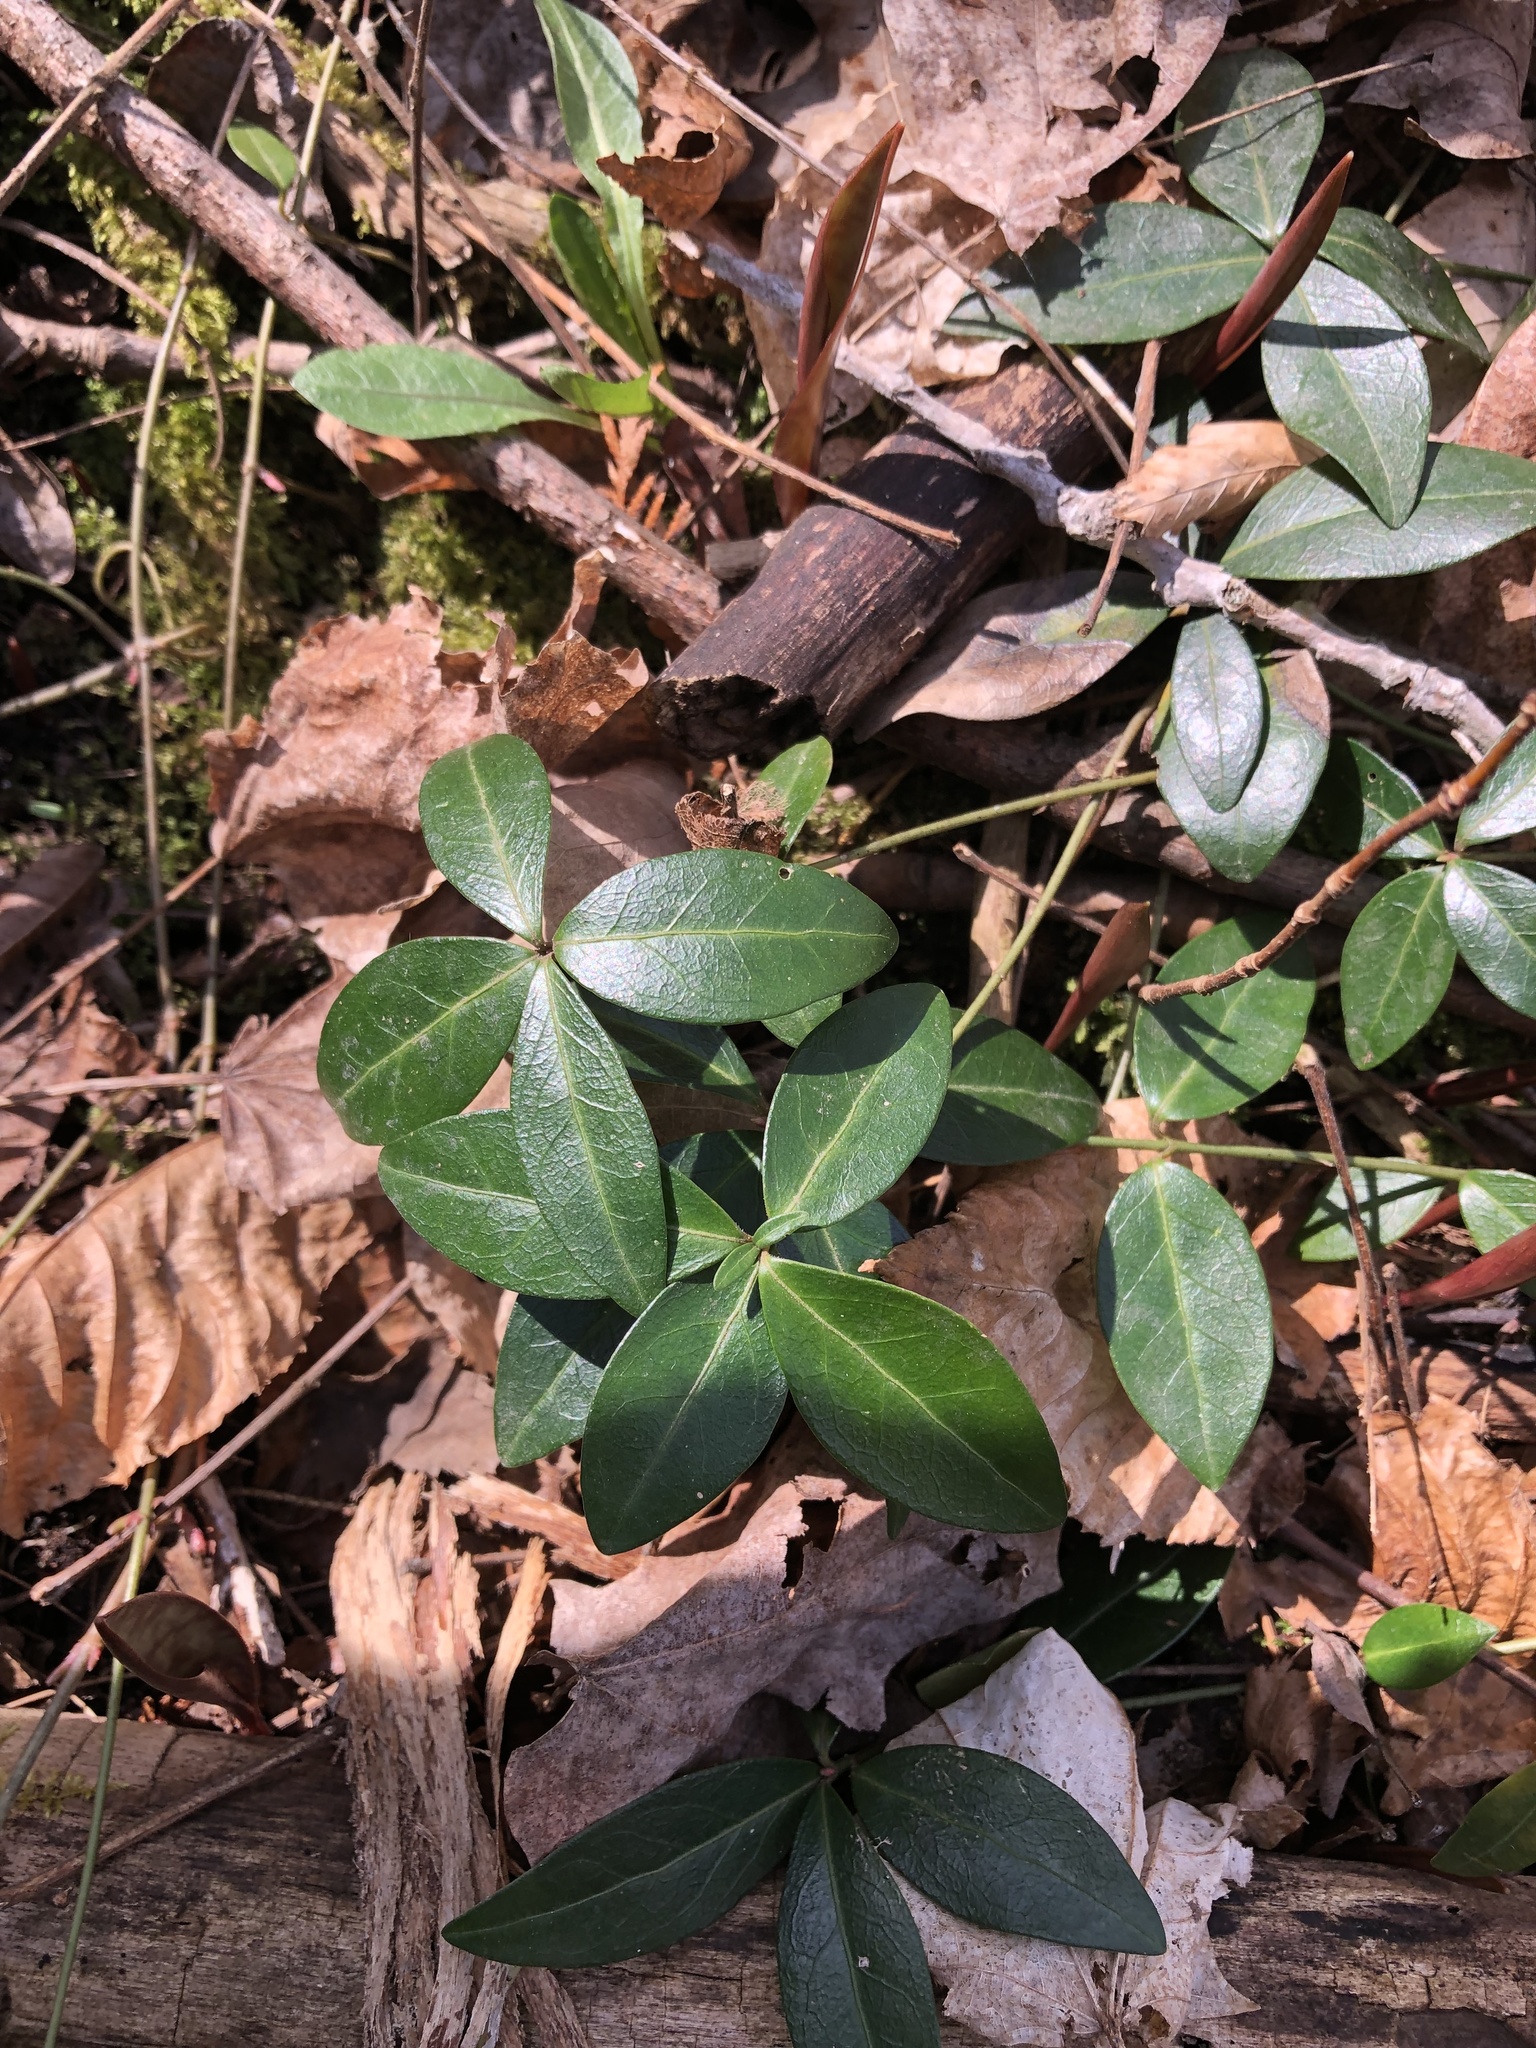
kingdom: Plantae
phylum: Tracheophyta
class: Magnoliopsida
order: Gentianales
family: Apocynaceae
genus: Vinca
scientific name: Vinca minor
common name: Lesser periwinkle
